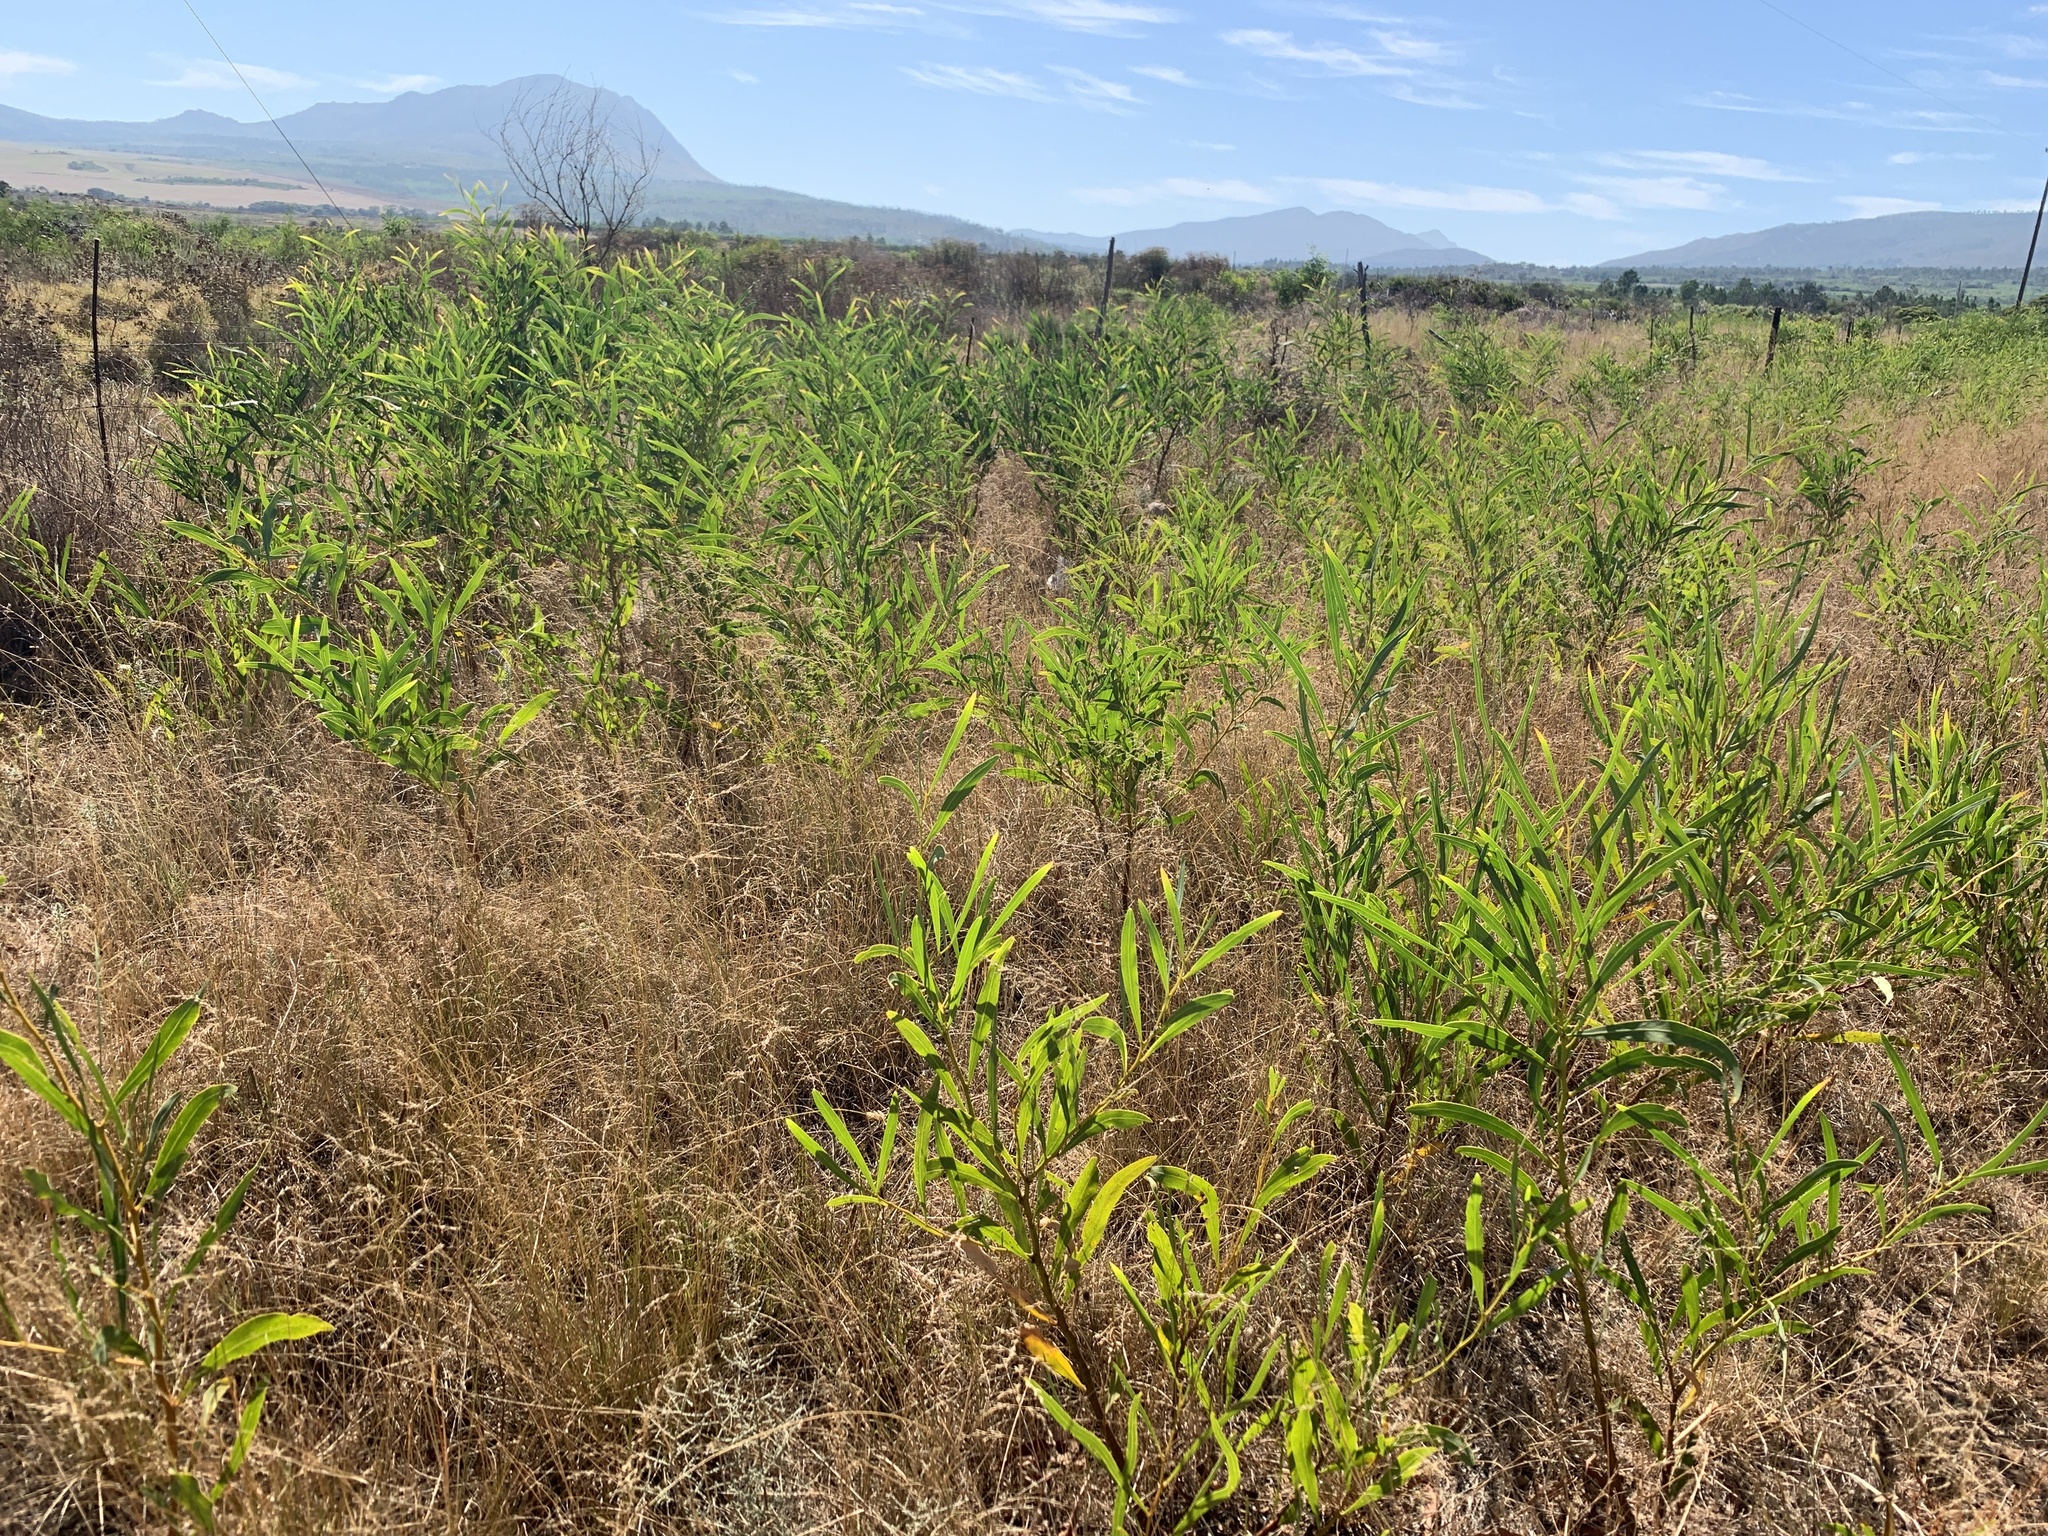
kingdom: Plantae
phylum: Tracheophyta
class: Magnoliopsida
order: Fabales
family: Fabaceae
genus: Acacia
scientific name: Acacia saligna
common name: Orange wattle
